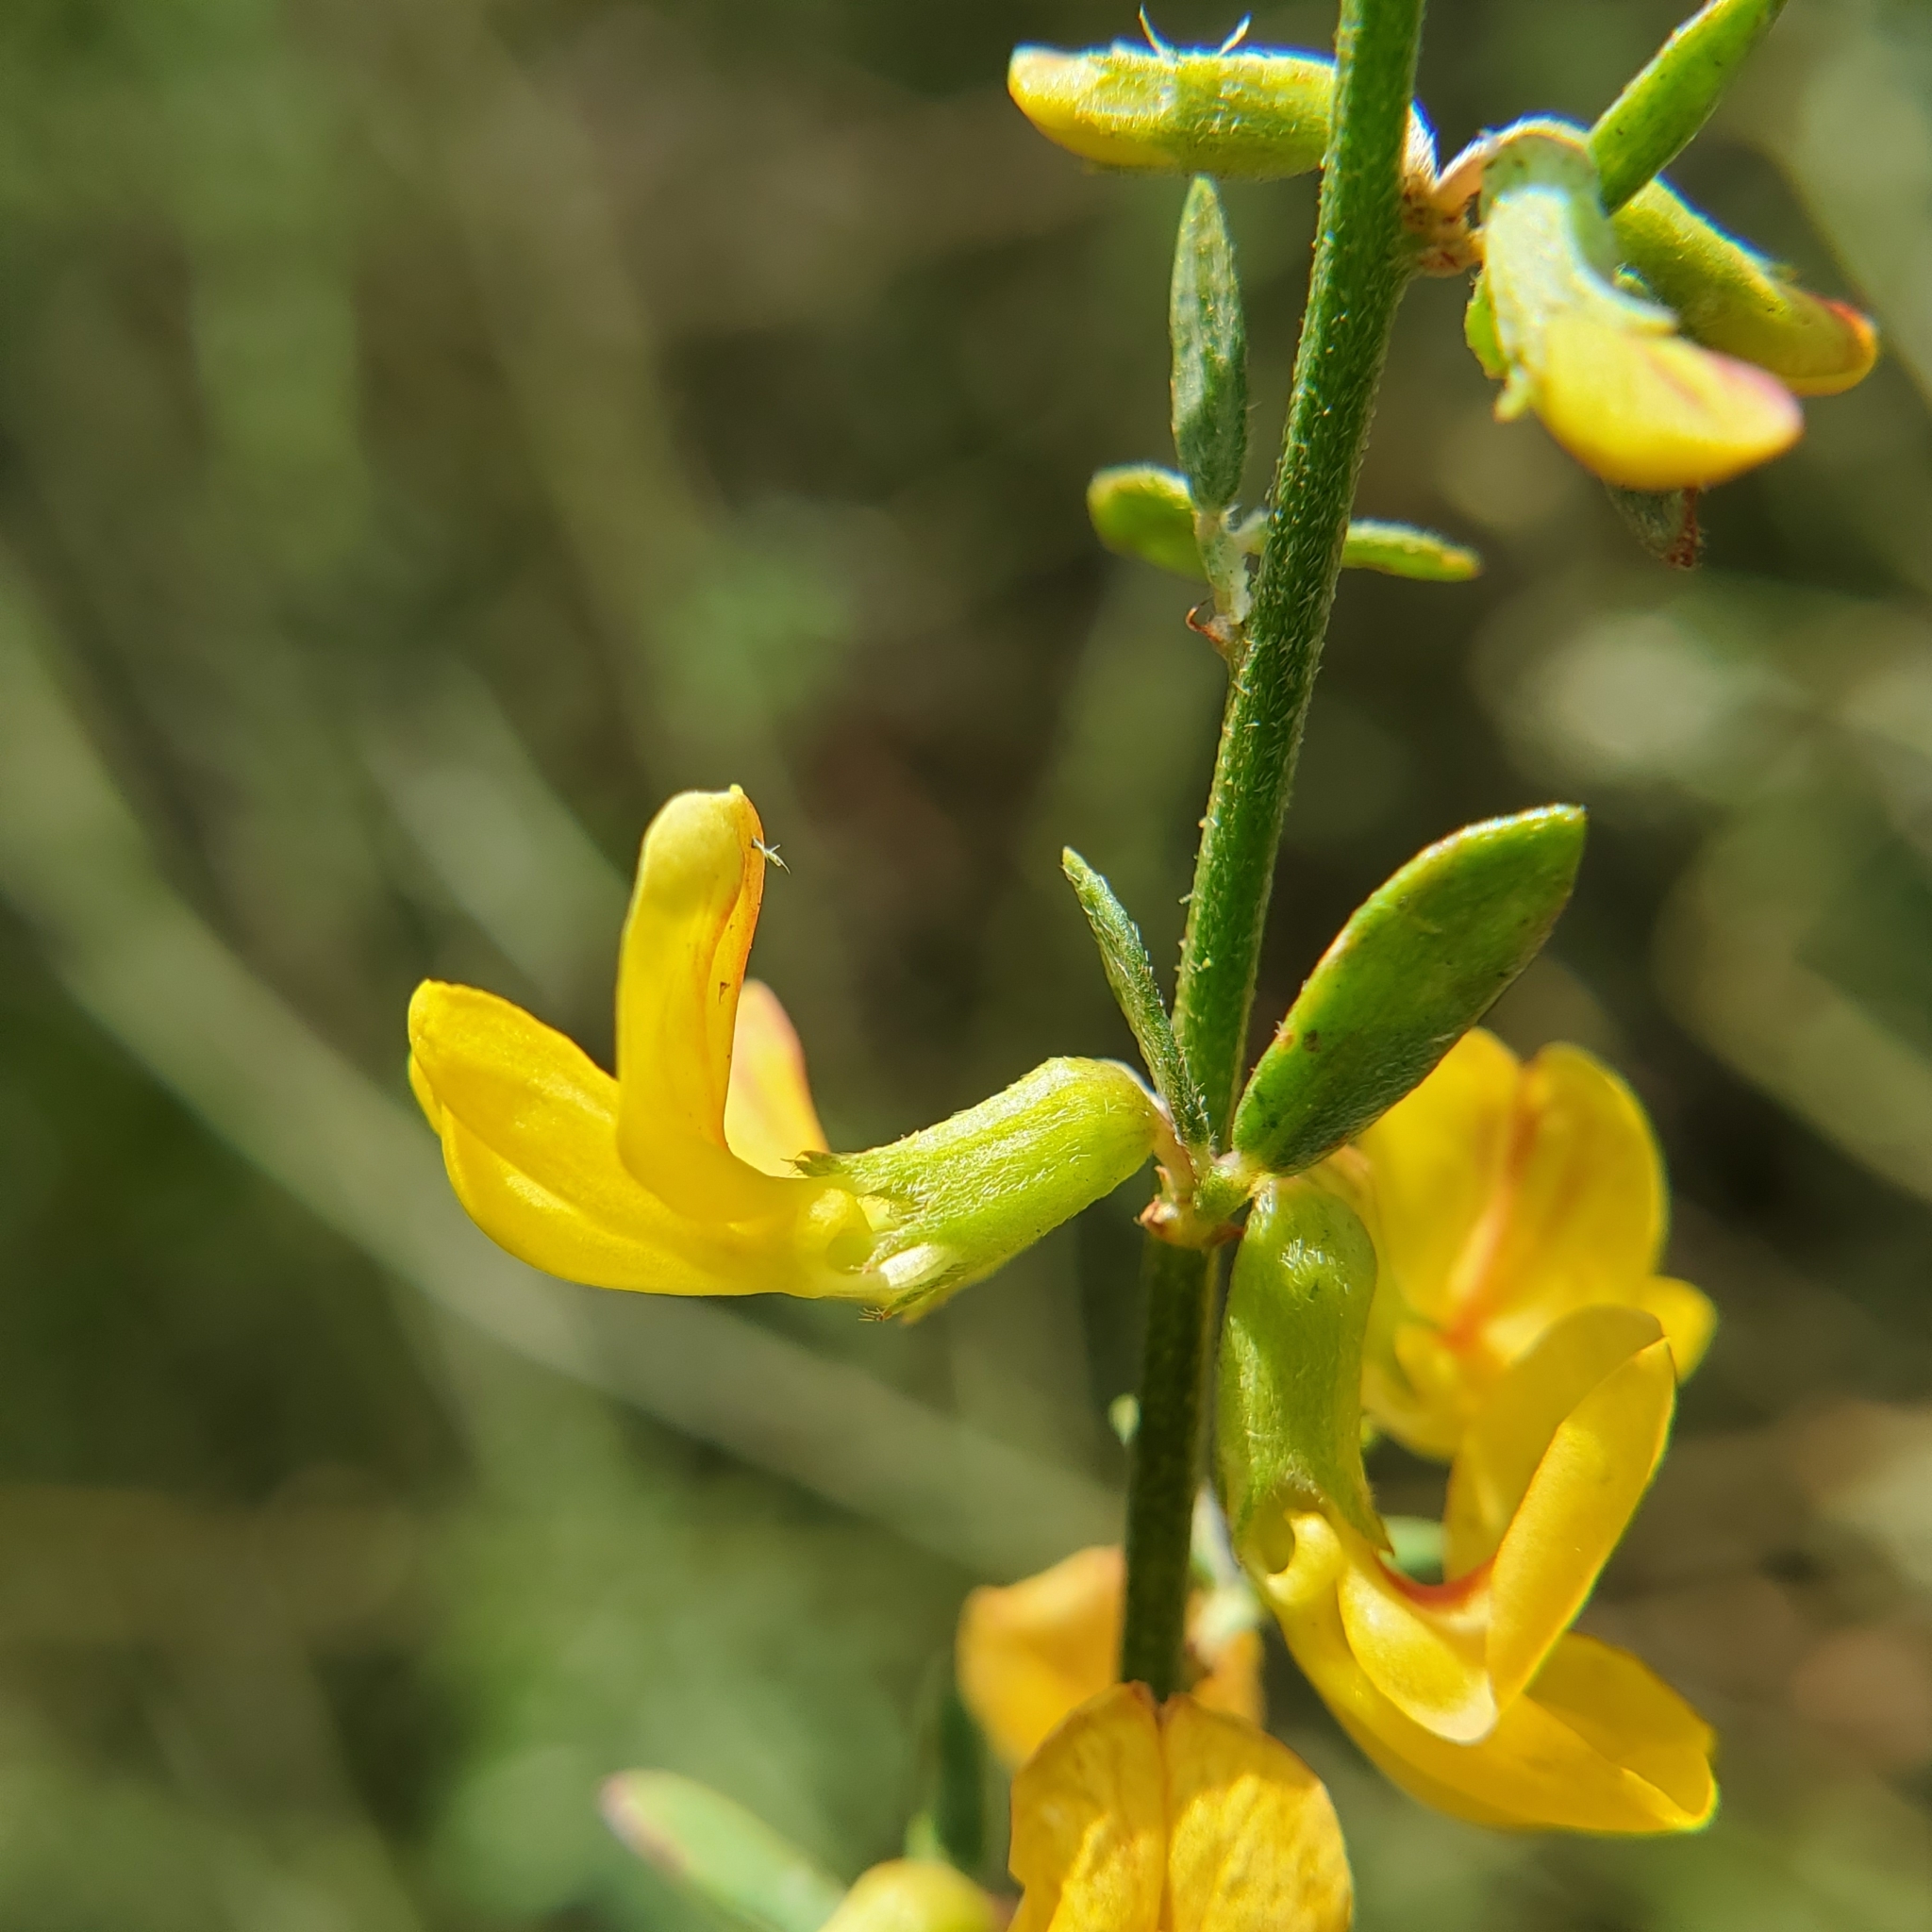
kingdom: Plantae
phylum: Tracheophyta
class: Magnoliopsida
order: Fabales
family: Fabaceae
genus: Acmispon
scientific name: Acmispon glaber
